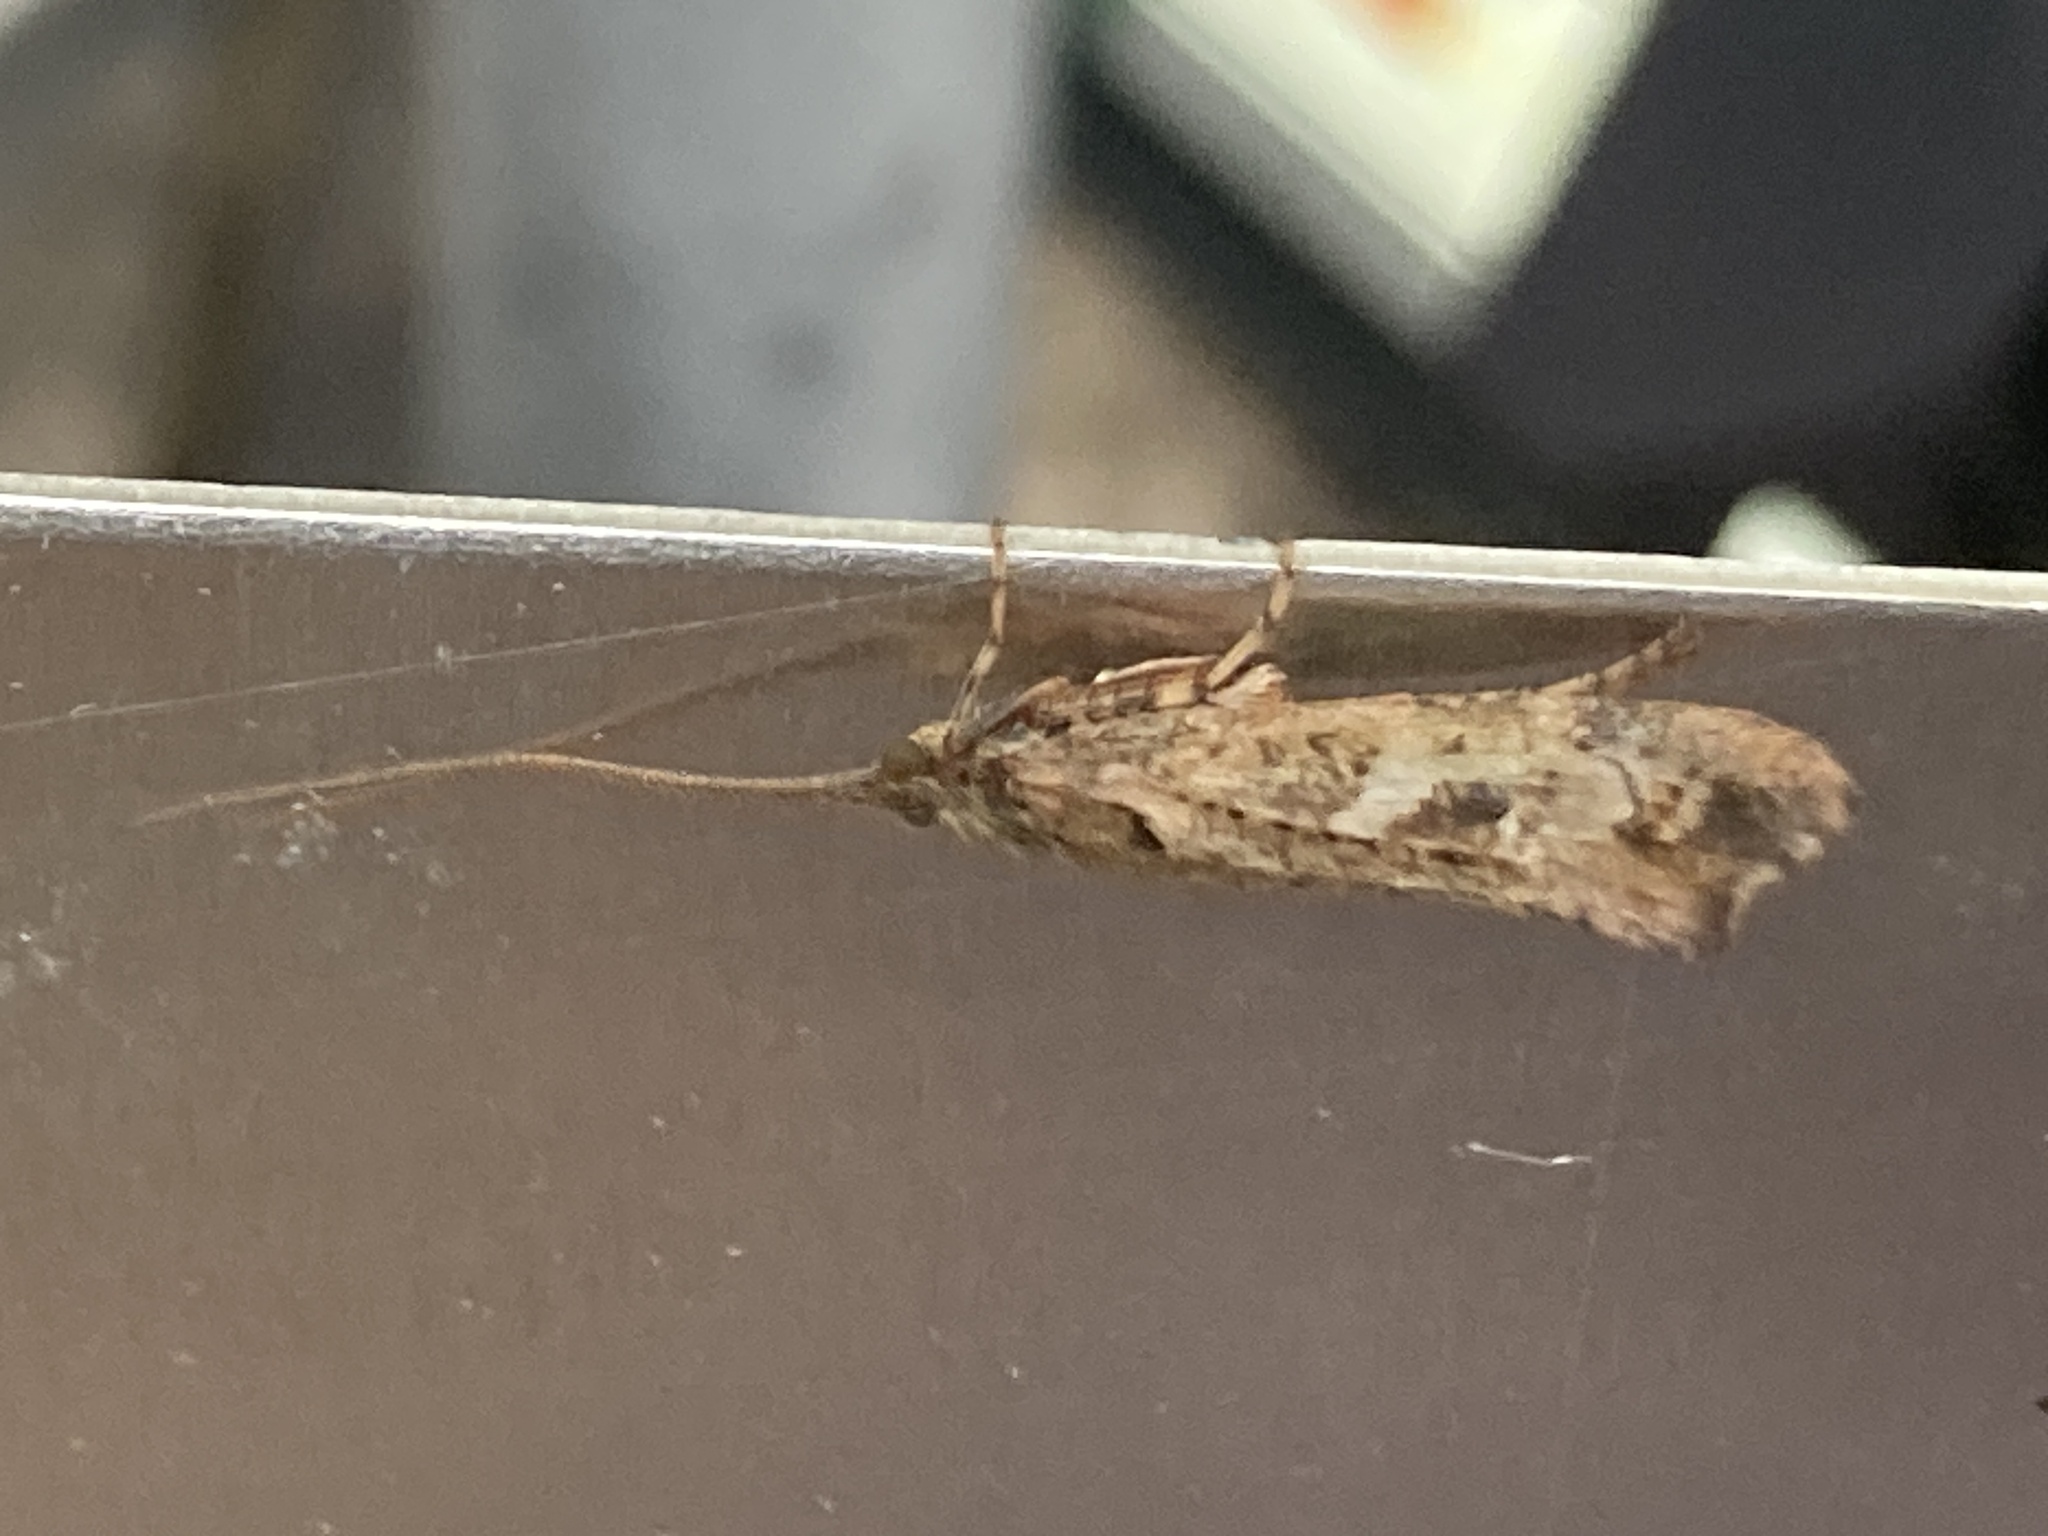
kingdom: Animalia
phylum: Arthropoda
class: Insecta
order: Trichoptera
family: Limnephilidae
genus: Glyphotaelius
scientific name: Glyphotaelius pellucidus
